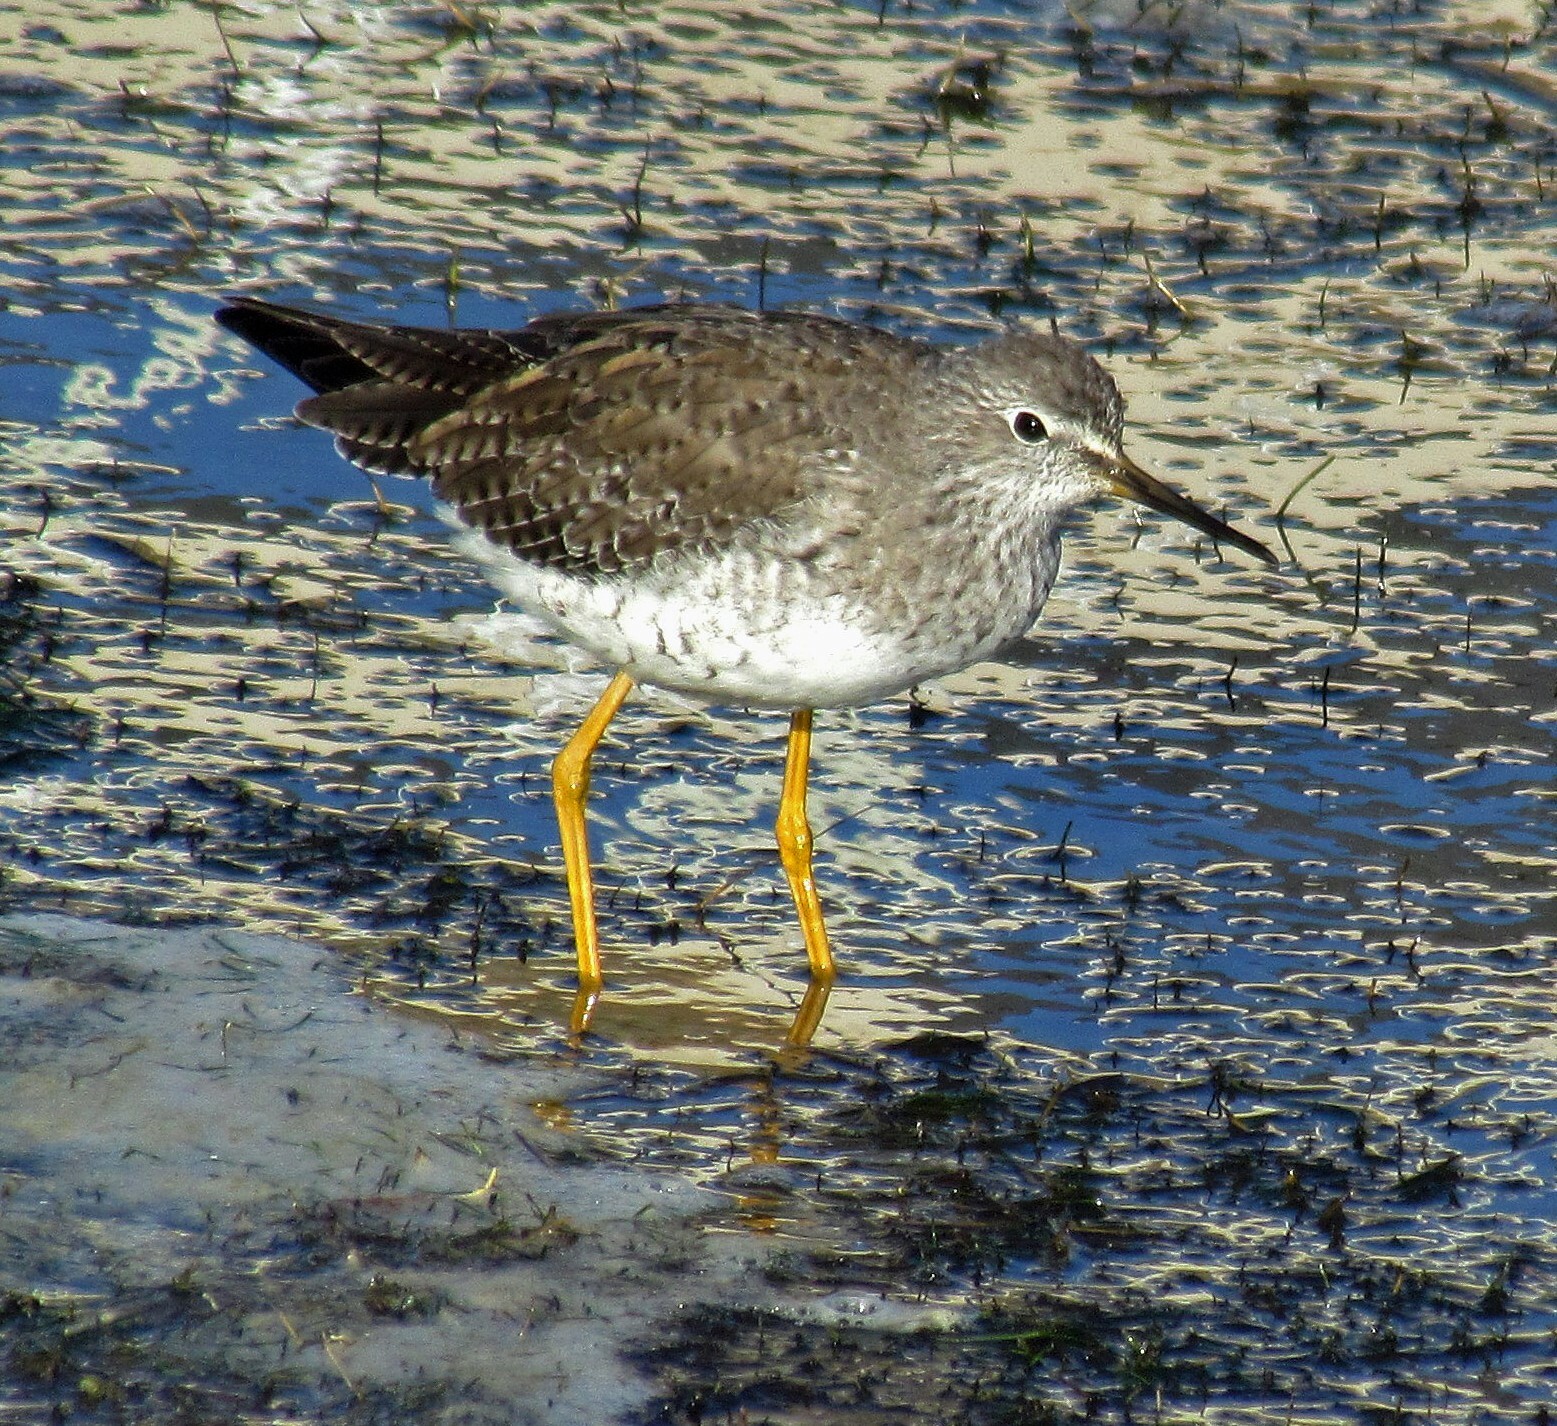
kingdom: Animalia
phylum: Chordata
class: Aves
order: Charadriiformes
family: Scolopacidae
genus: Tringa
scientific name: Tringa flavipes
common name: Lesser yellowlegs
